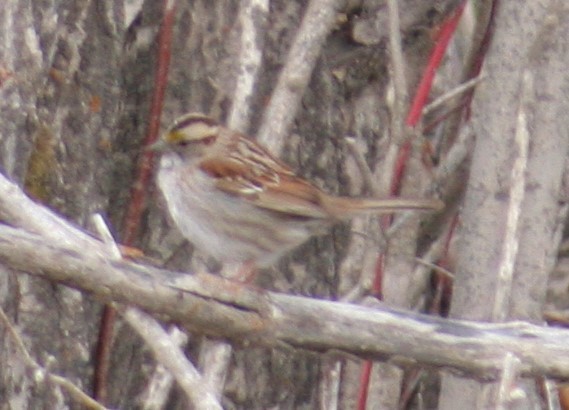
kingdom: Animalia
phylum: Chordata
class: Aves
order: Passeriformes
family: Passerellidae
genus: Zonotrichia
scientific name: Zonotrichia albicollis
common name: White-throated sparrow
